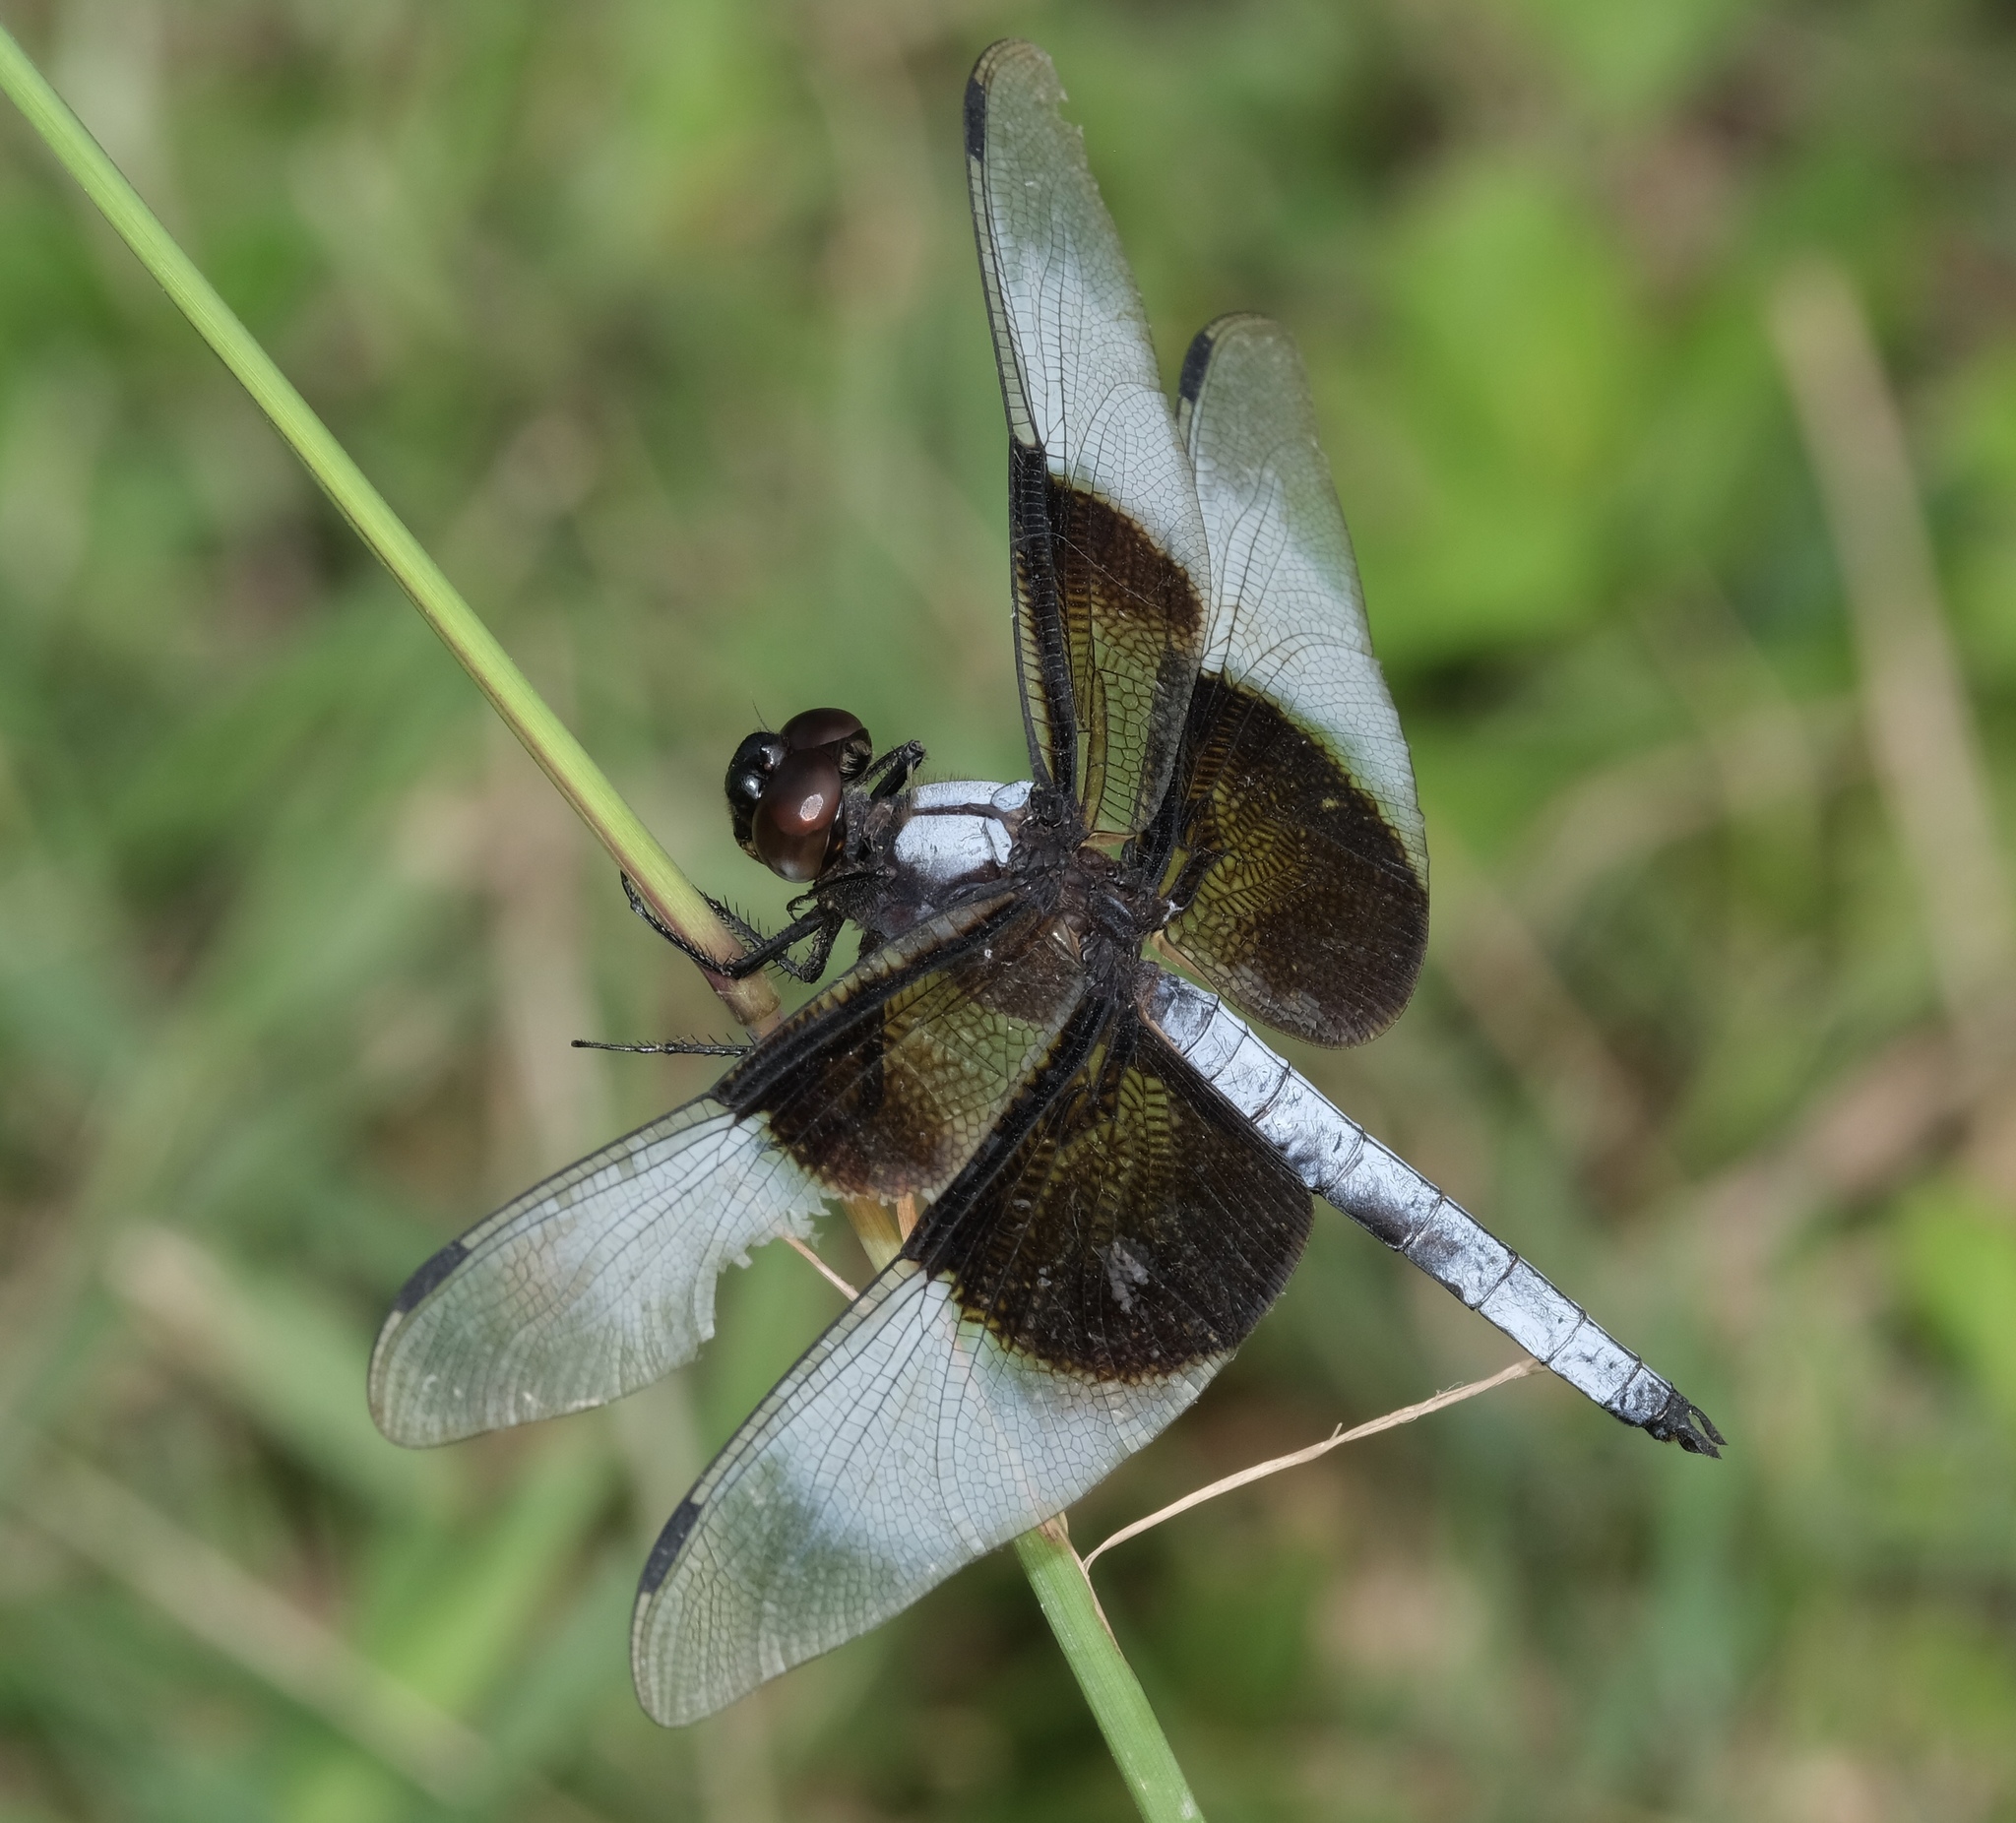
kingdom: Animalia
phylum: Arthropoda
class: Insecta
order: Odonata
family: Libellulidae
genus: Libellula
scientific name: Libellula luctuosa
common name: Widow skimmer
